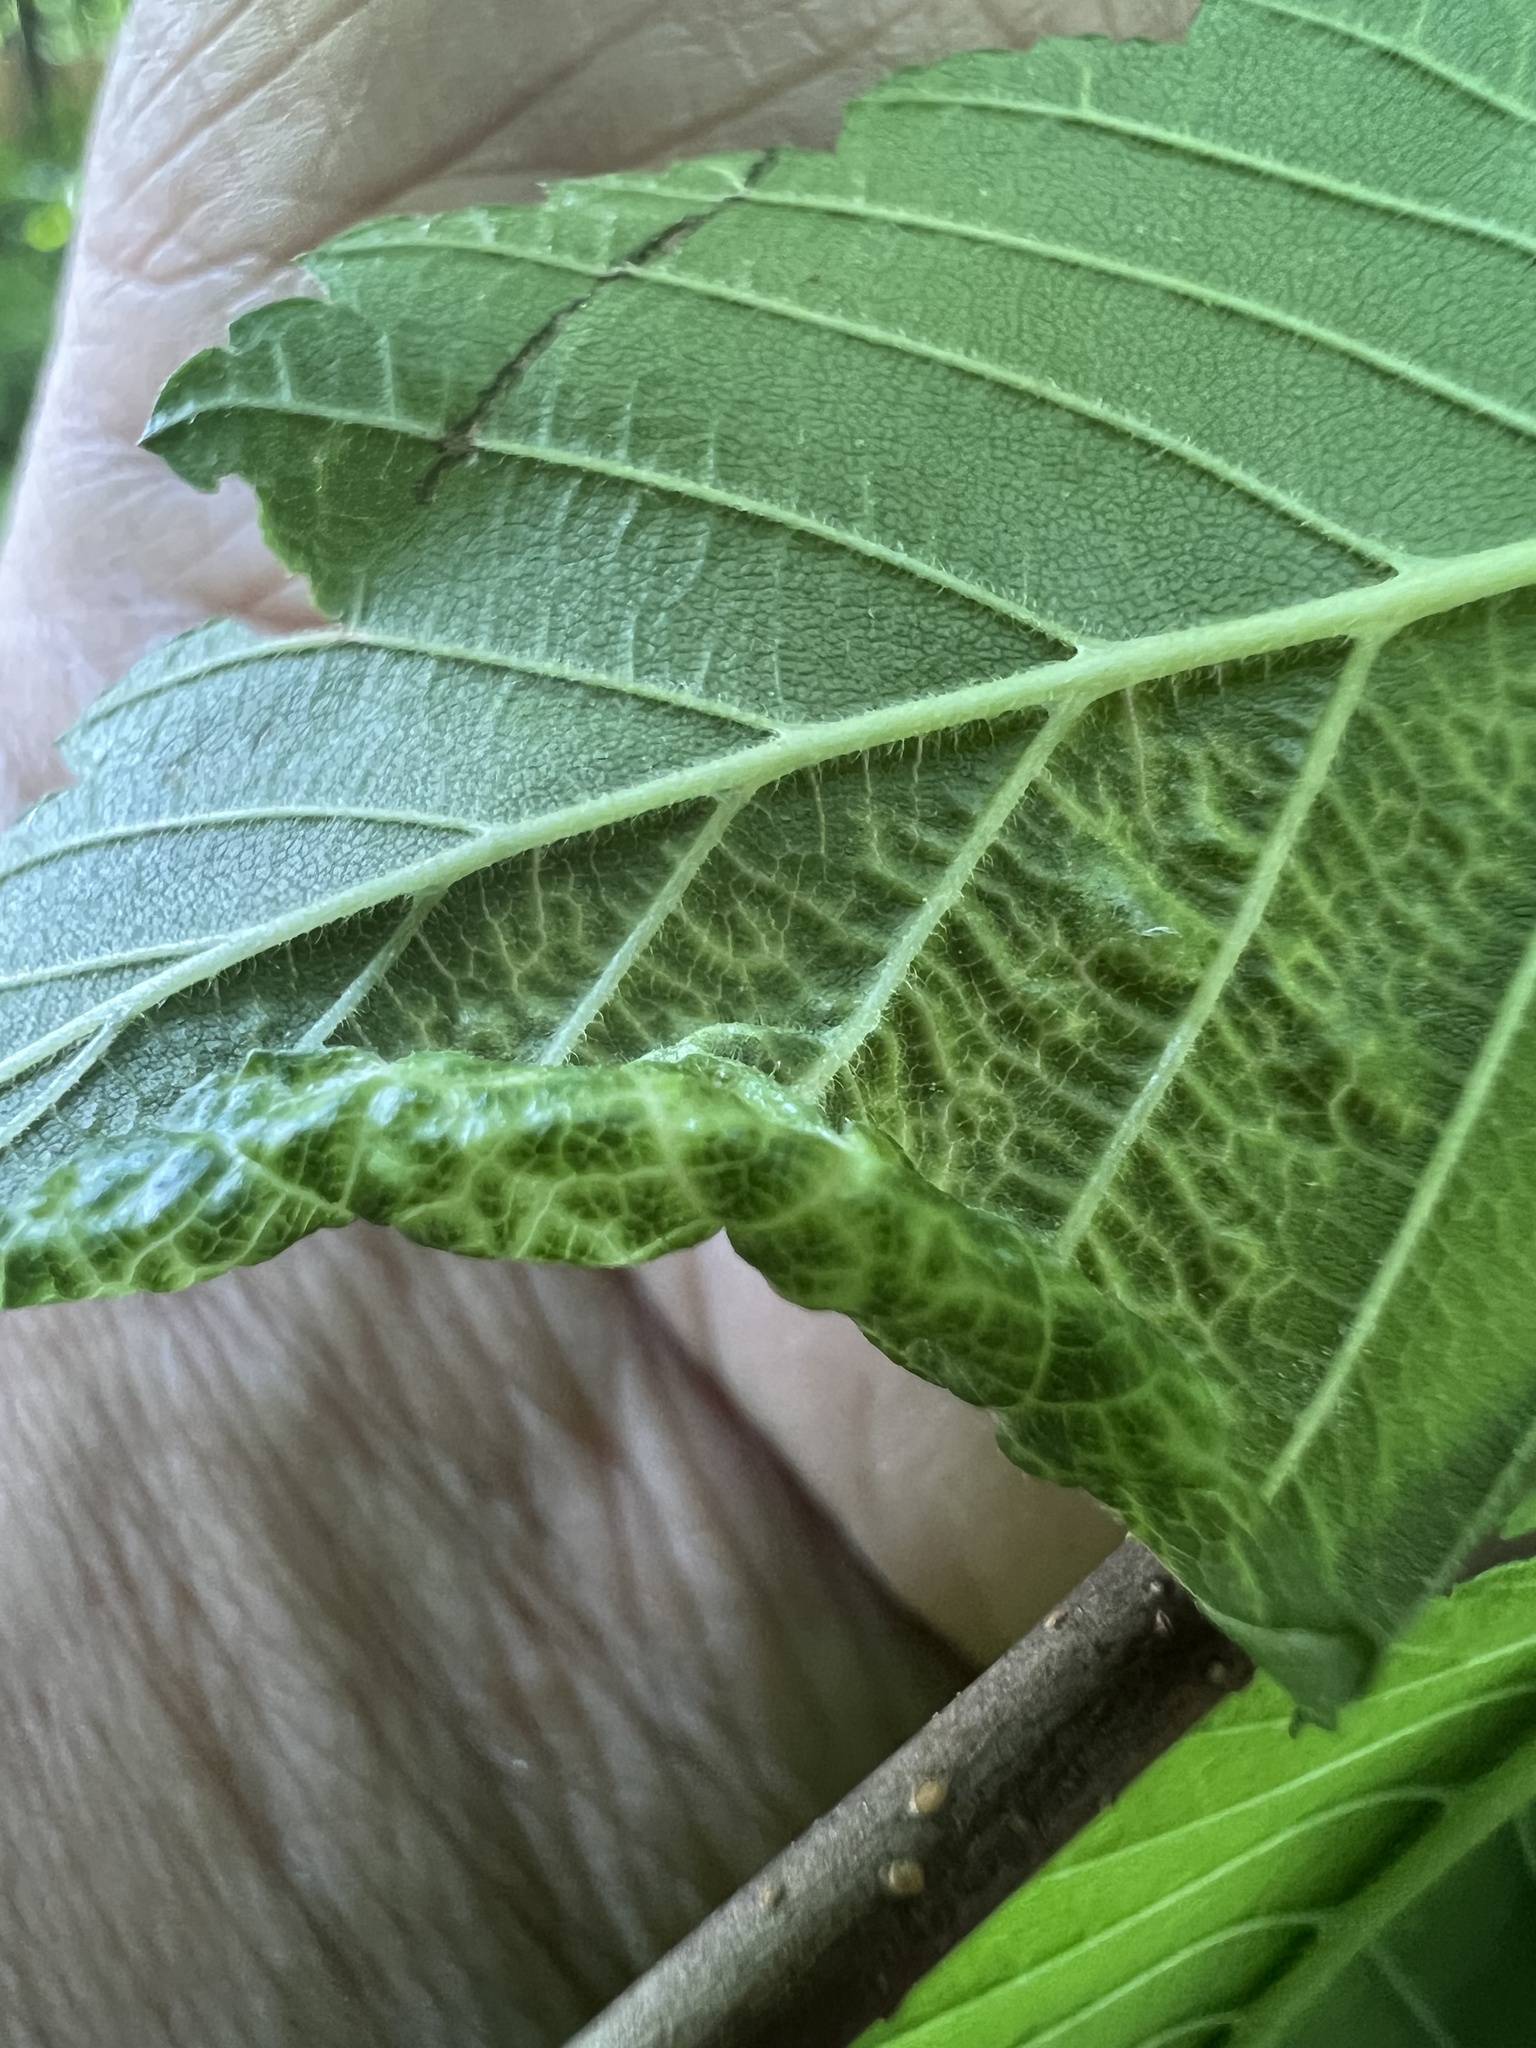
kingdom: Animalia
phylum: Arthropoda
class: Insecta
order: Hemiptera
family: Aphididae
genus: Eriosoma
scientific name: Eriosoma americanum
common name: Woolly elm aphid
